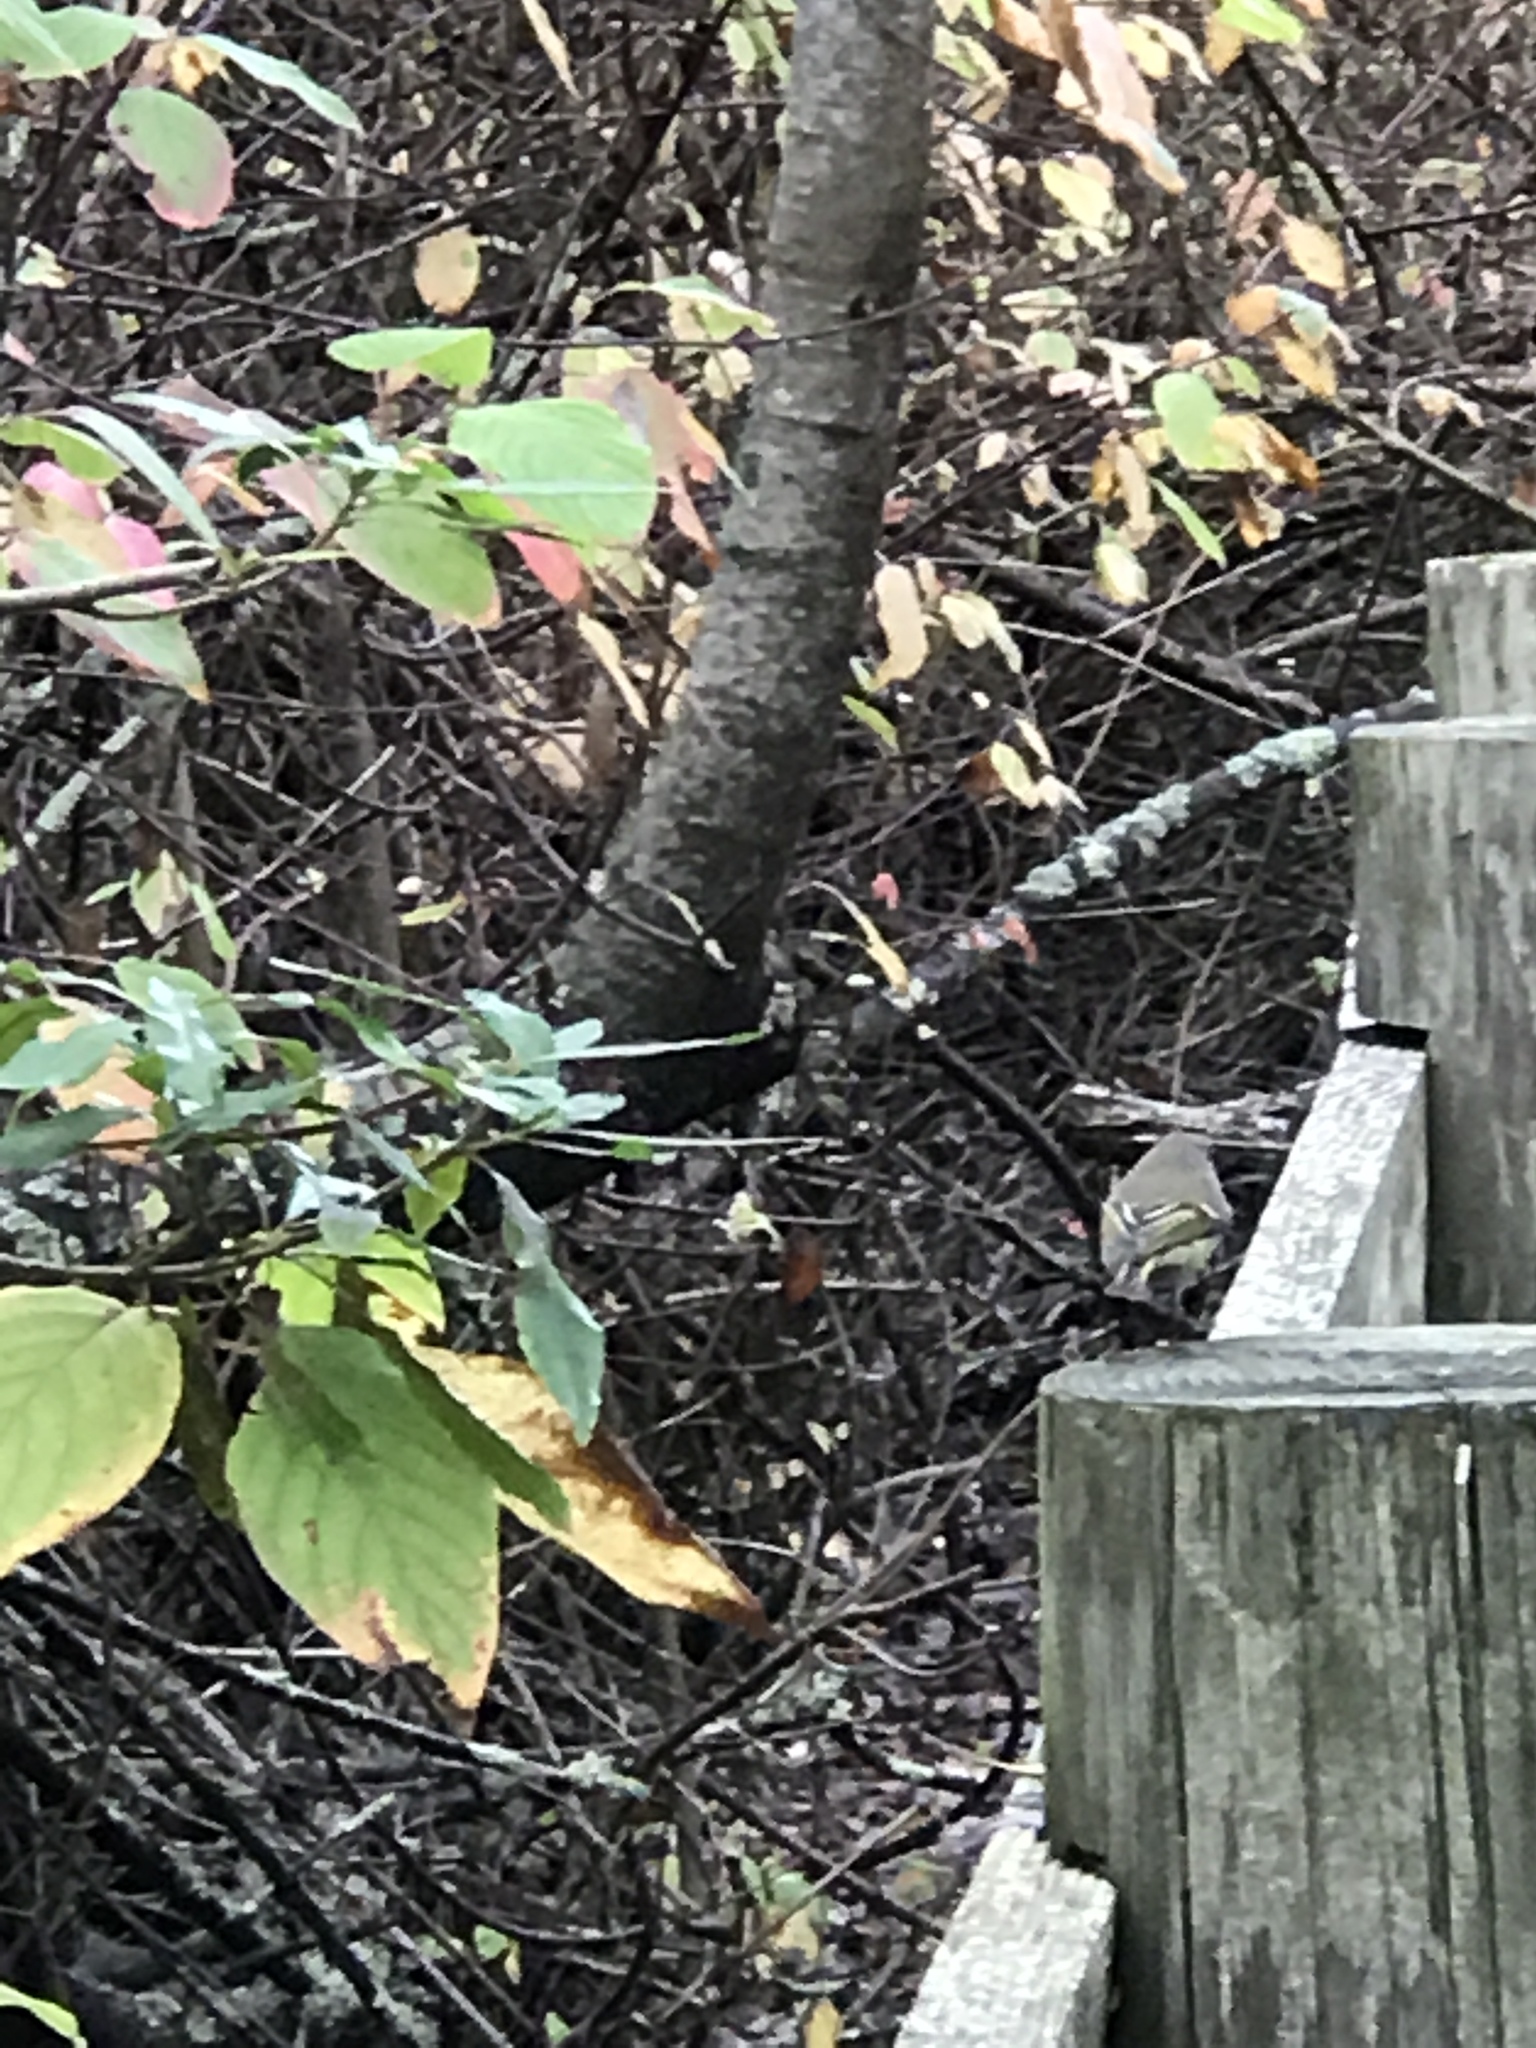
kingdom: Animalia
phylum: Chordata
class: Aves
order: Passeriformes
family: Regulidae
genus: Regulus
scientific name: Regulus calendula
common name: Ruby-crowned kinglet
